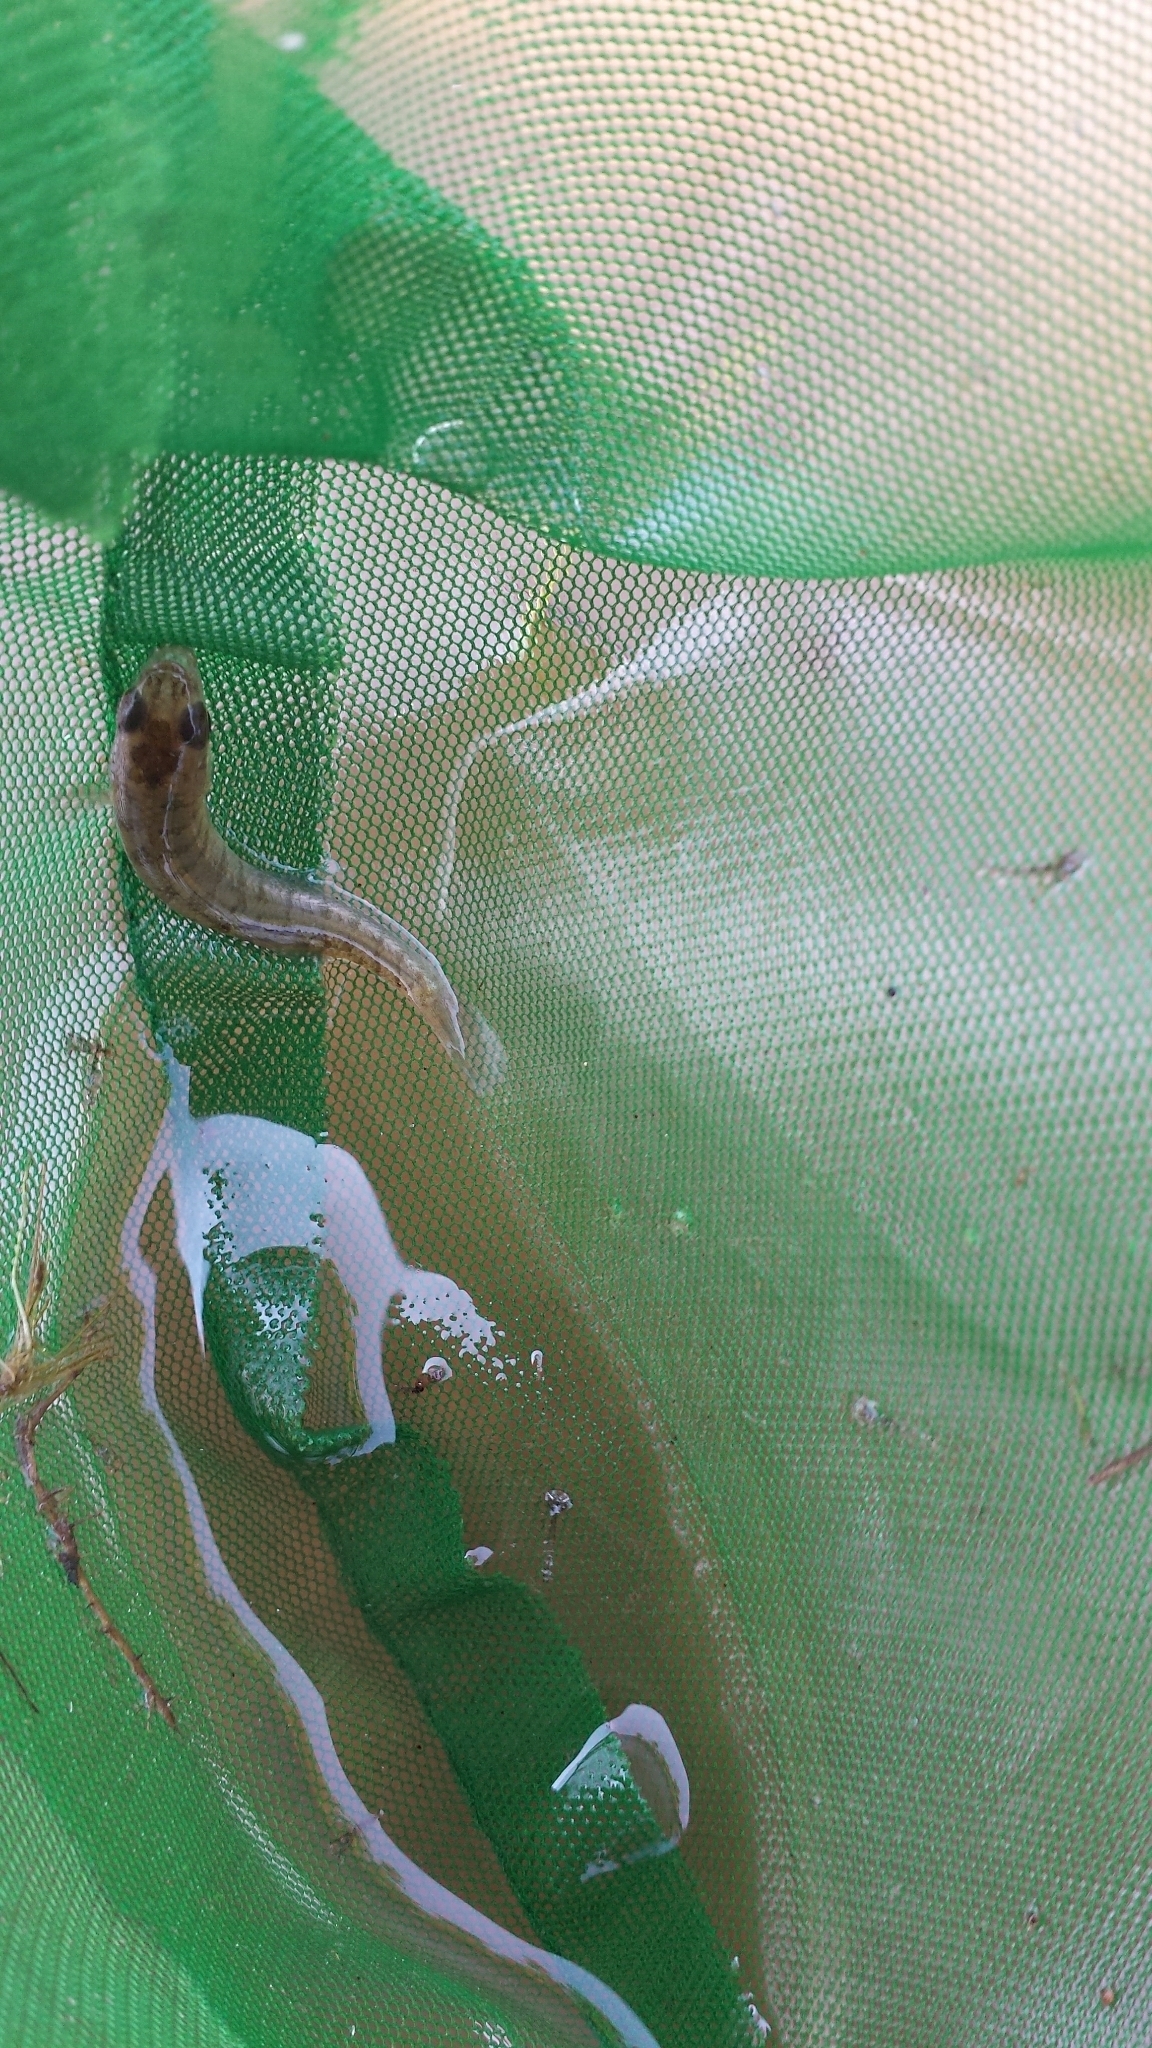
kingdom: Animalia
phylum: Chordata
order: Cyprinodontiformes
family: Fundulidae
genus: Fundulus
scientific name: Fundulus diaphanus
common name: Banded killifish
